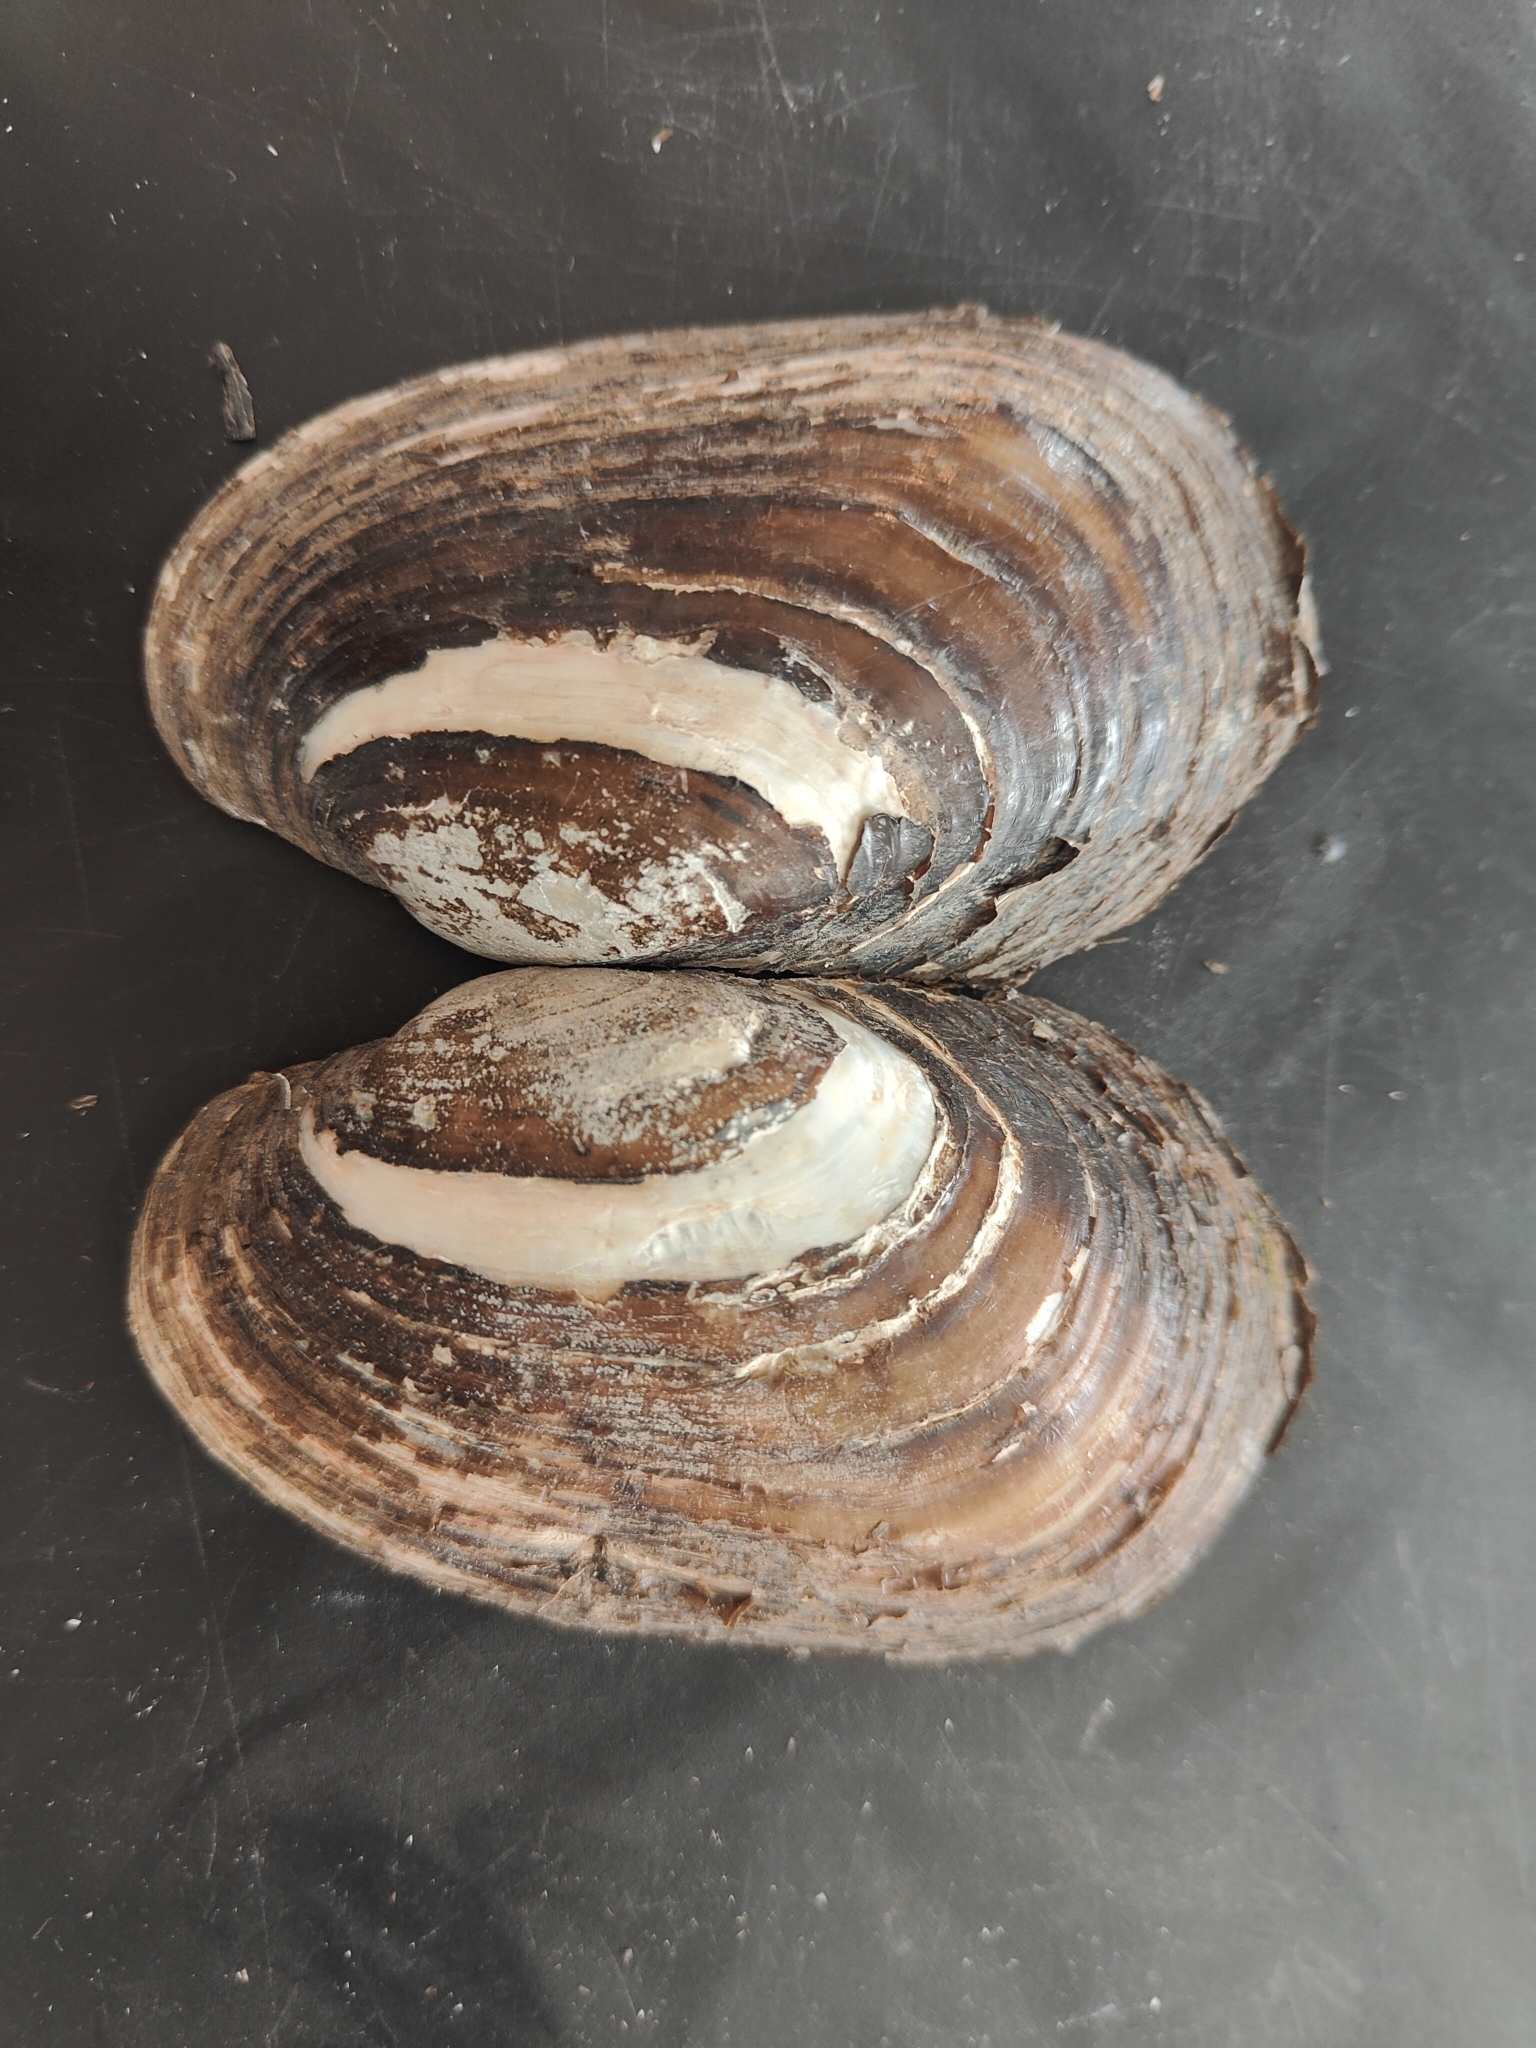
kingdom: Animalia
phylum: Mollusca
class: Bivalvia
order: Unionida
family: Unionidae
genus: Lampsilis
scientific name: Lampsilis siliquoidea
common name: Fatmucket
